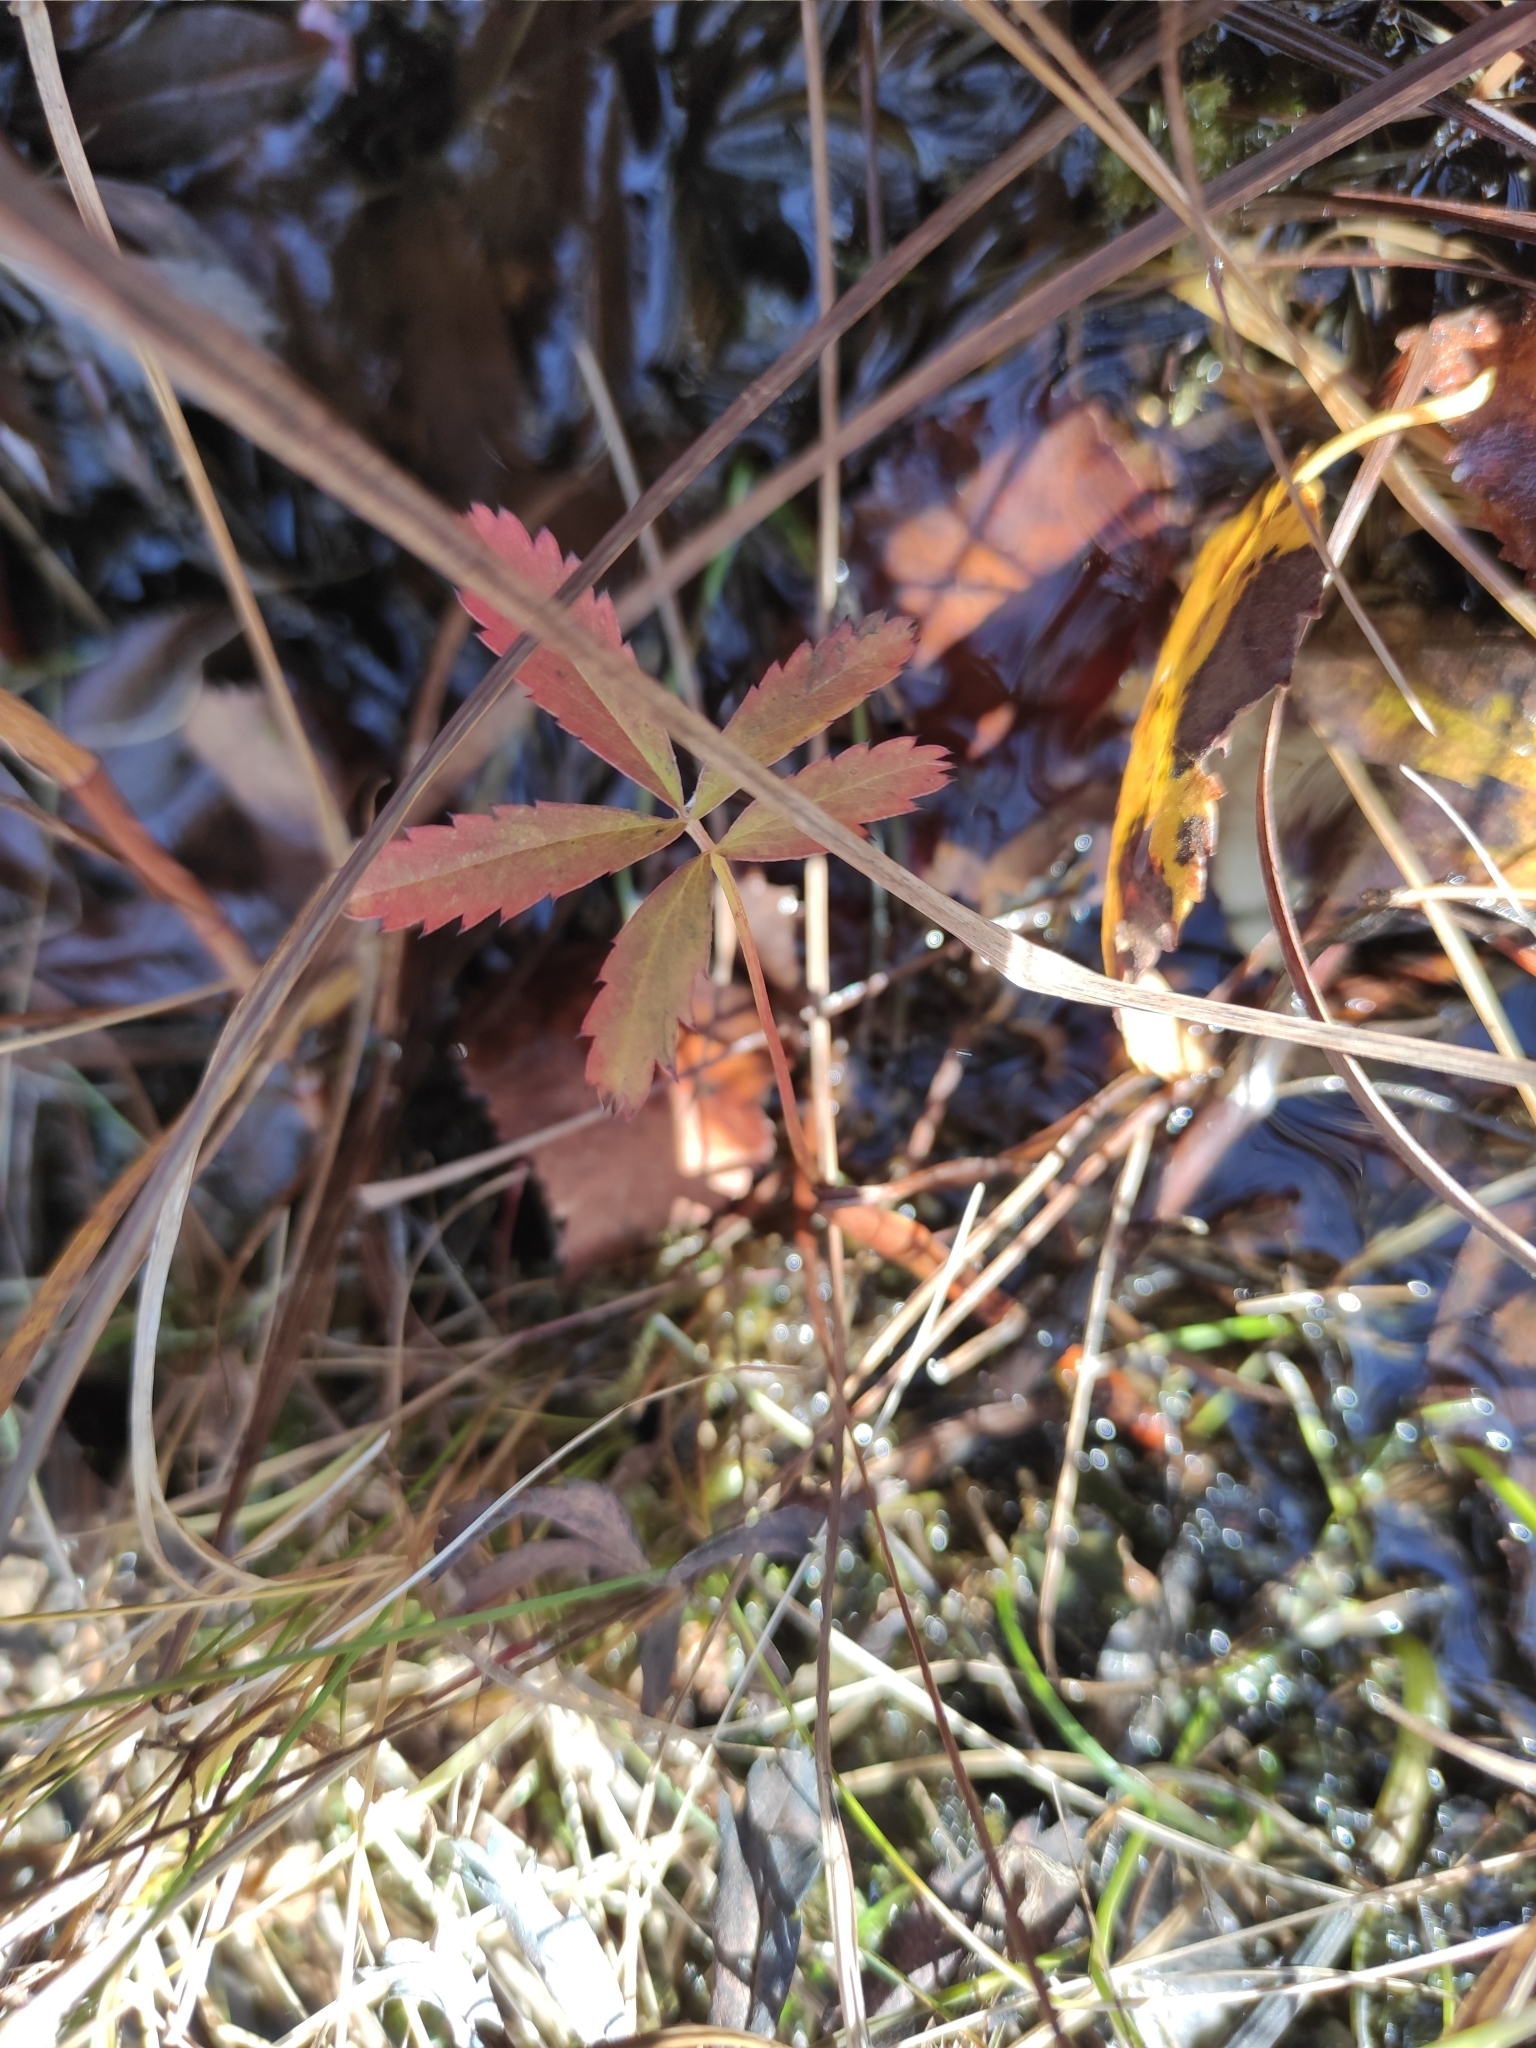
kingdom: Plantae
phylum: Tracheophyta
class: Magnoliopsida
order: Rosales
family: Rosaceae
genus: Comarum
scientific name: Comarum palustre
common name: Marsh cinquefoil
